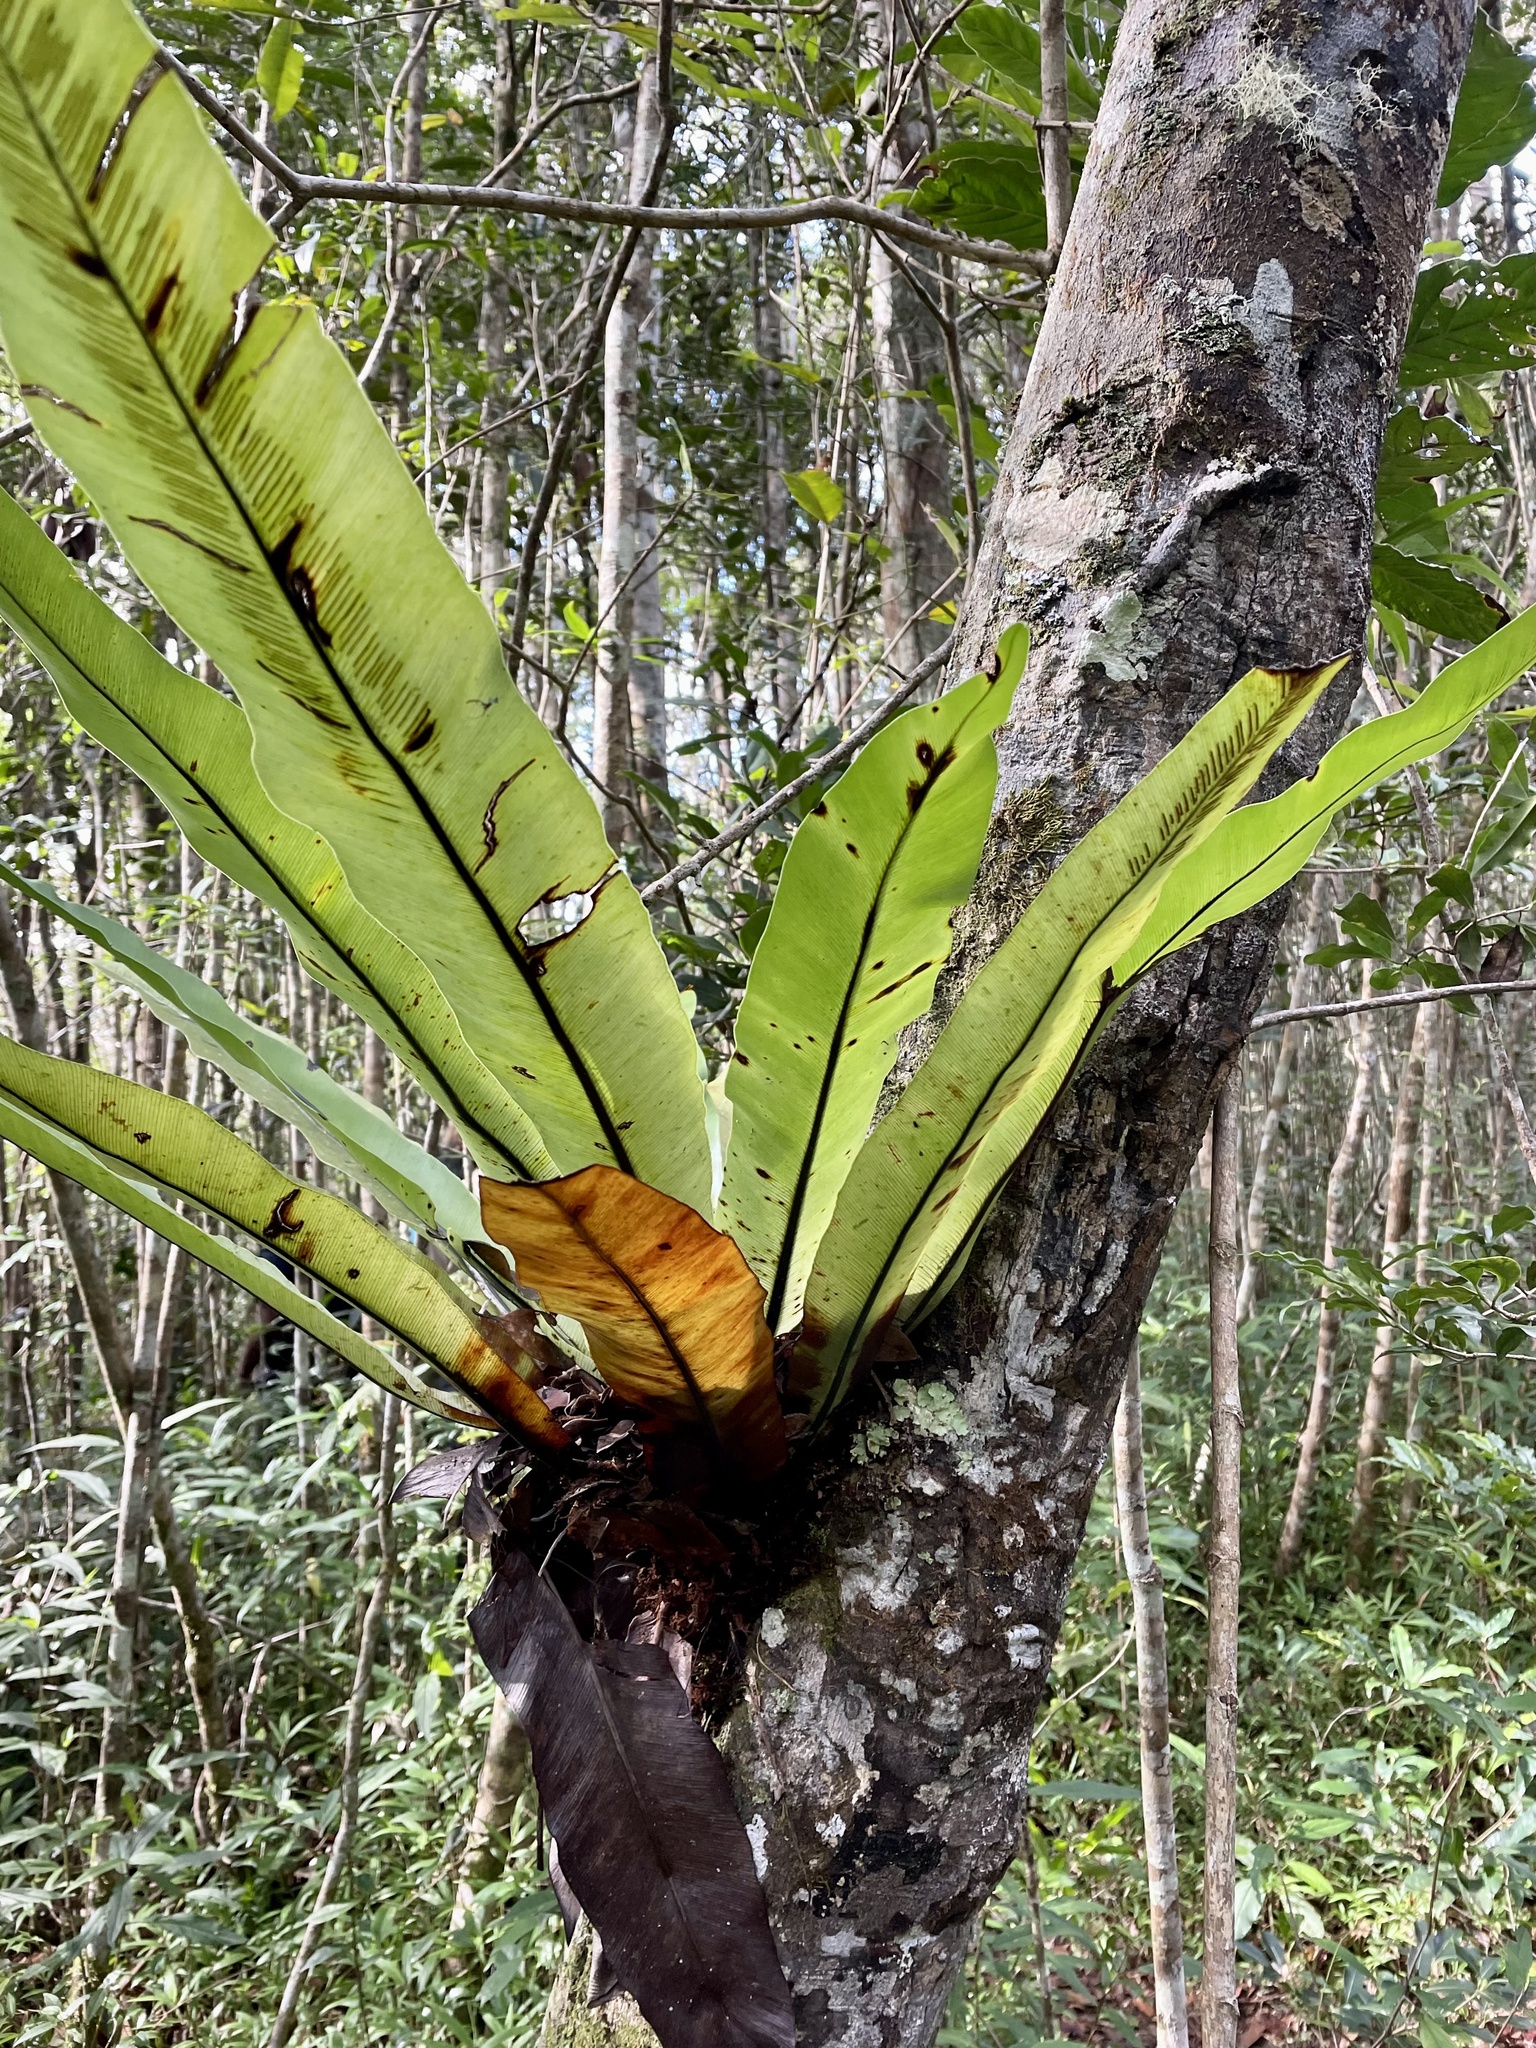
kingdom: Plantae
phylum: Tracheophyta
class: Polypodiopsida
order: Polypodiales
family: Aspleniaceae
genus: Asplenium
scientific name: Asplenium mauritianum
